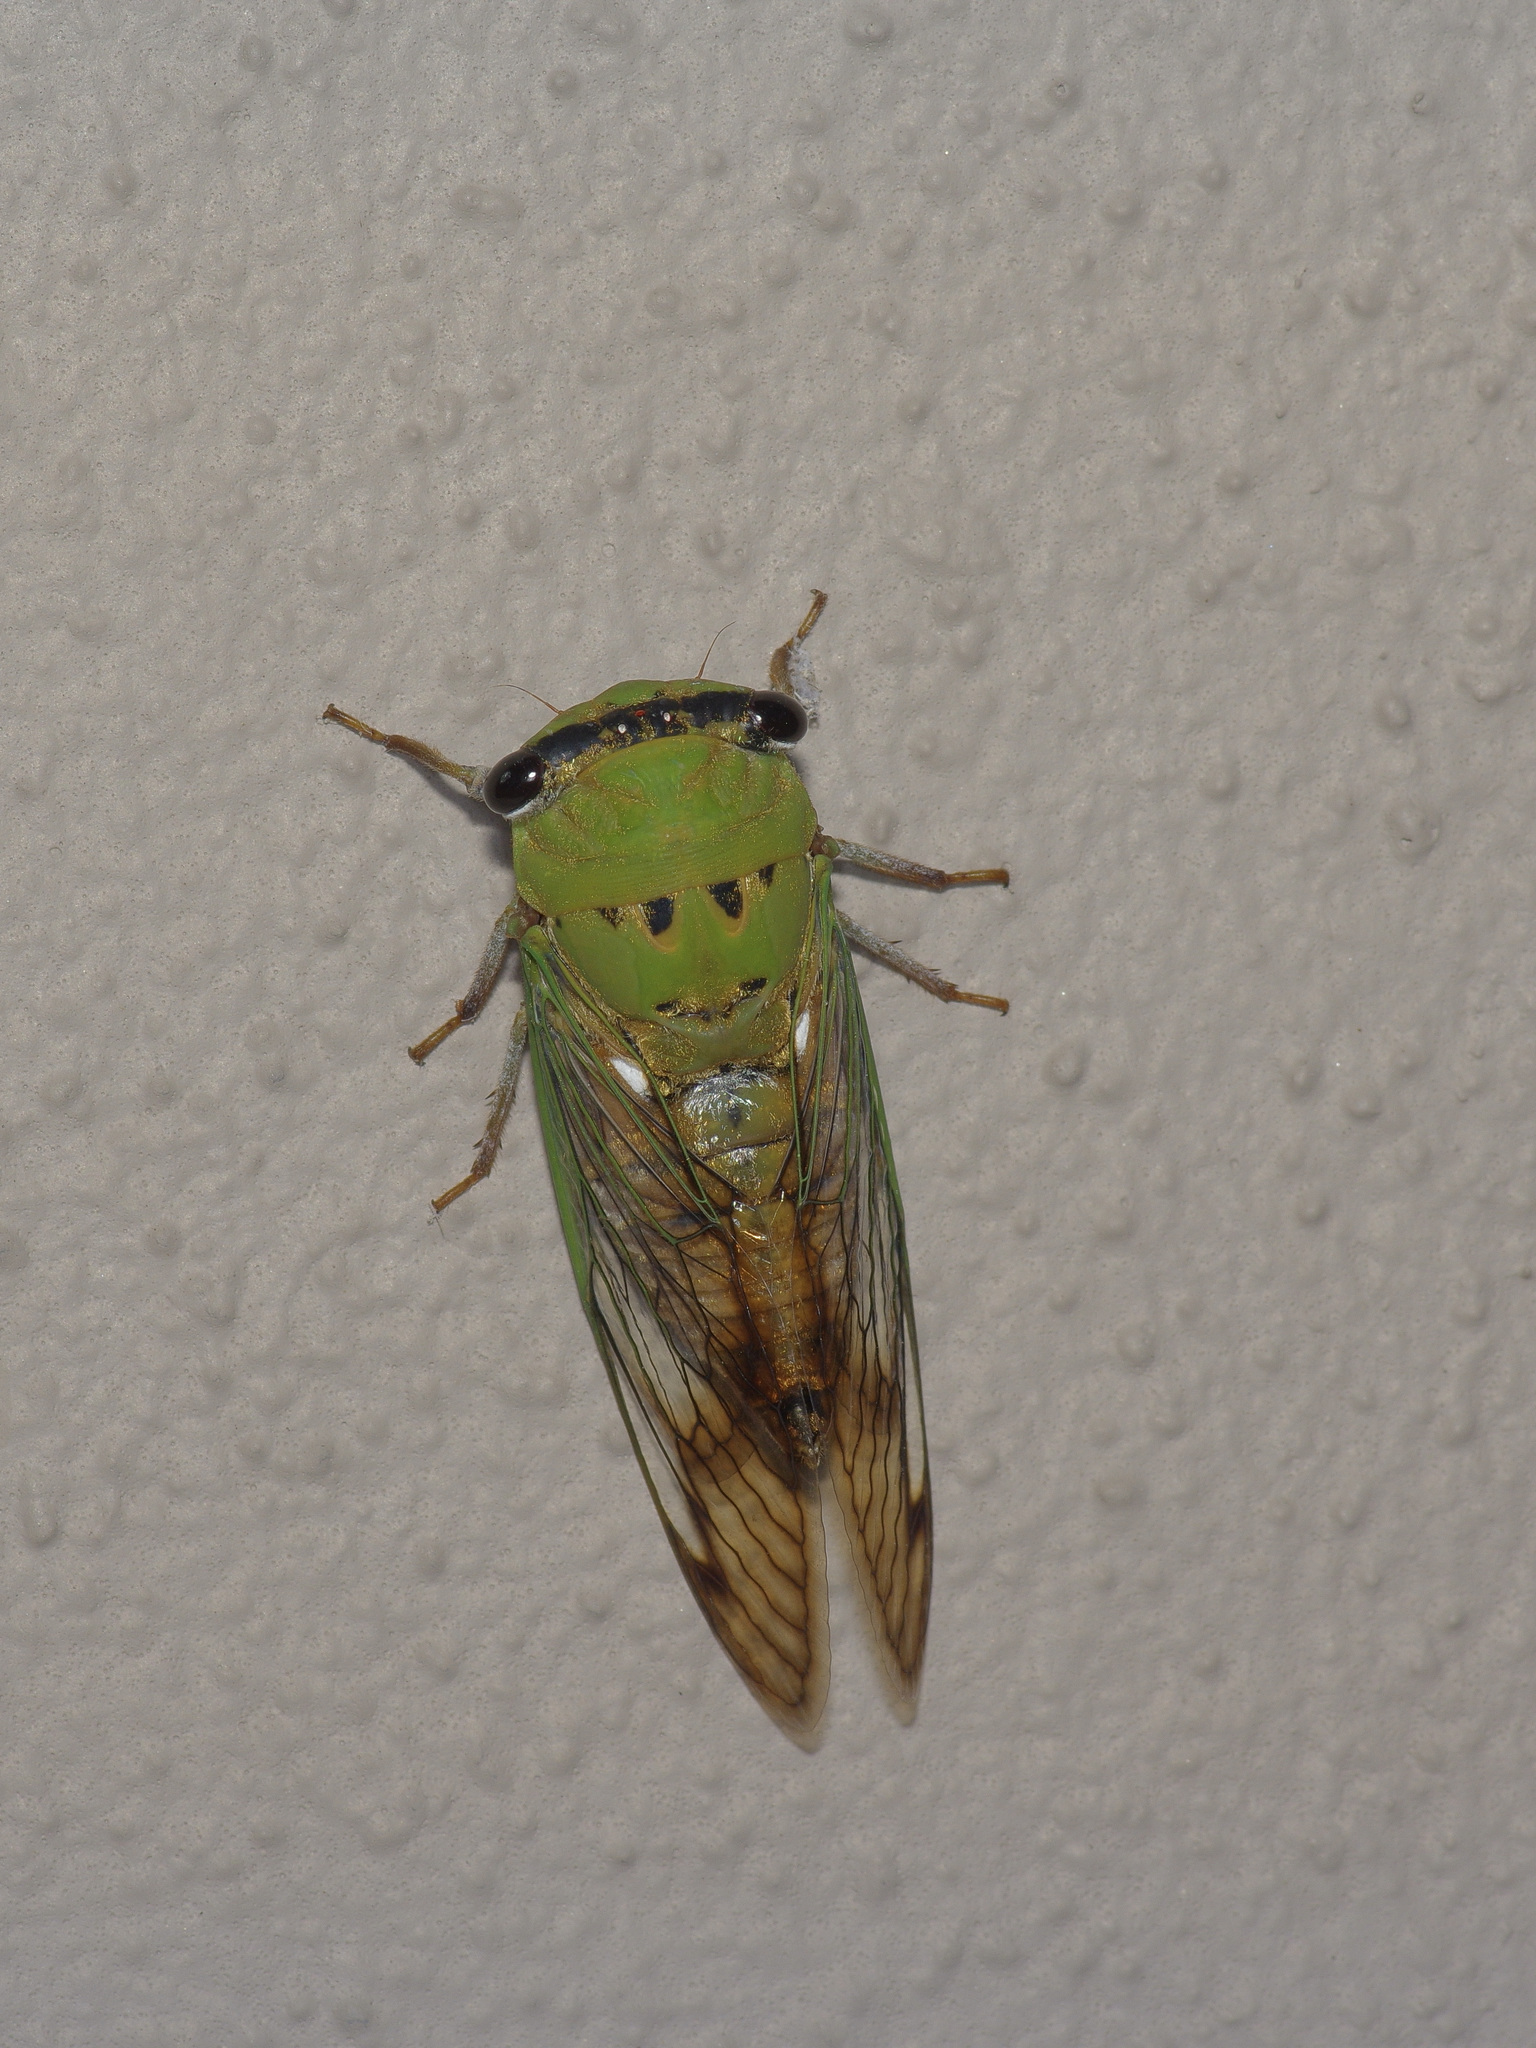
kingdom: Animalia
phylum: Arthropoda
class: Insecta
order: Hemiptera
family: Cicadidae
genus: Neotibicen
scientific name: Neotibicen superbus
